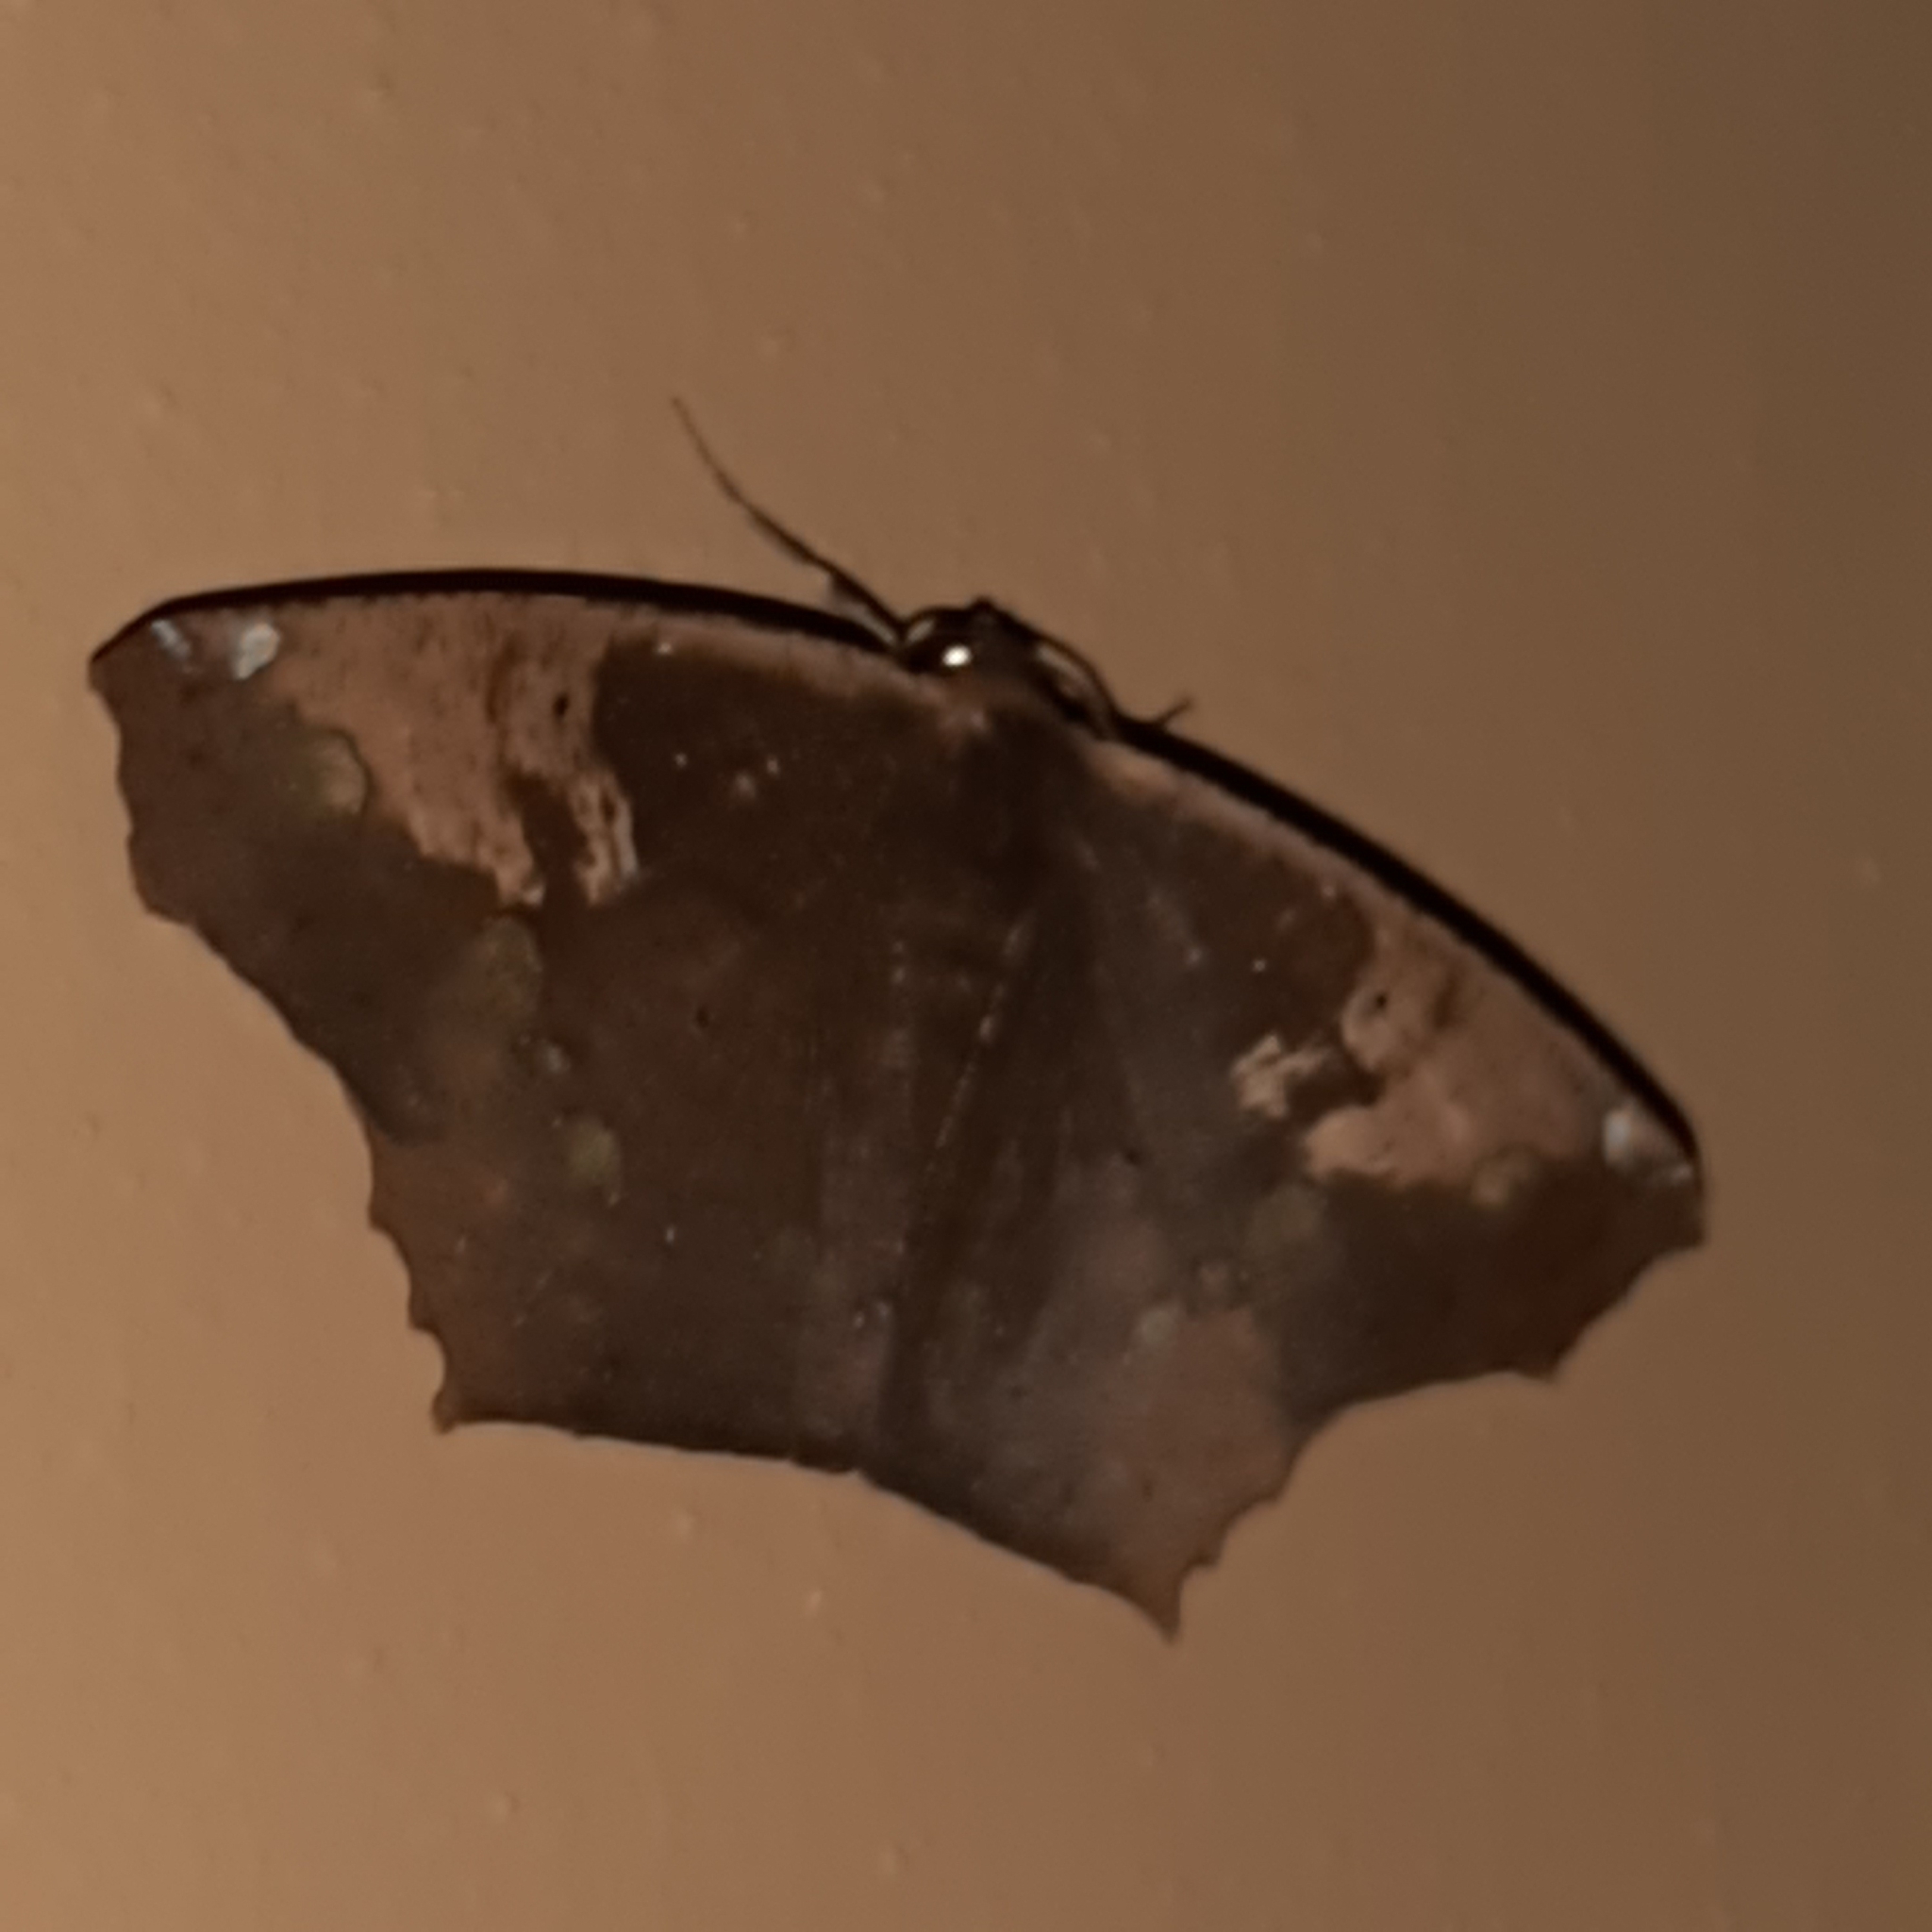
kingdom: Animalia
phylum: Arthropoda
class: Insecta
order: Lepidoptera
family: Geometridae
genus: Paragonia
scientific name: Paragonia cruraria
